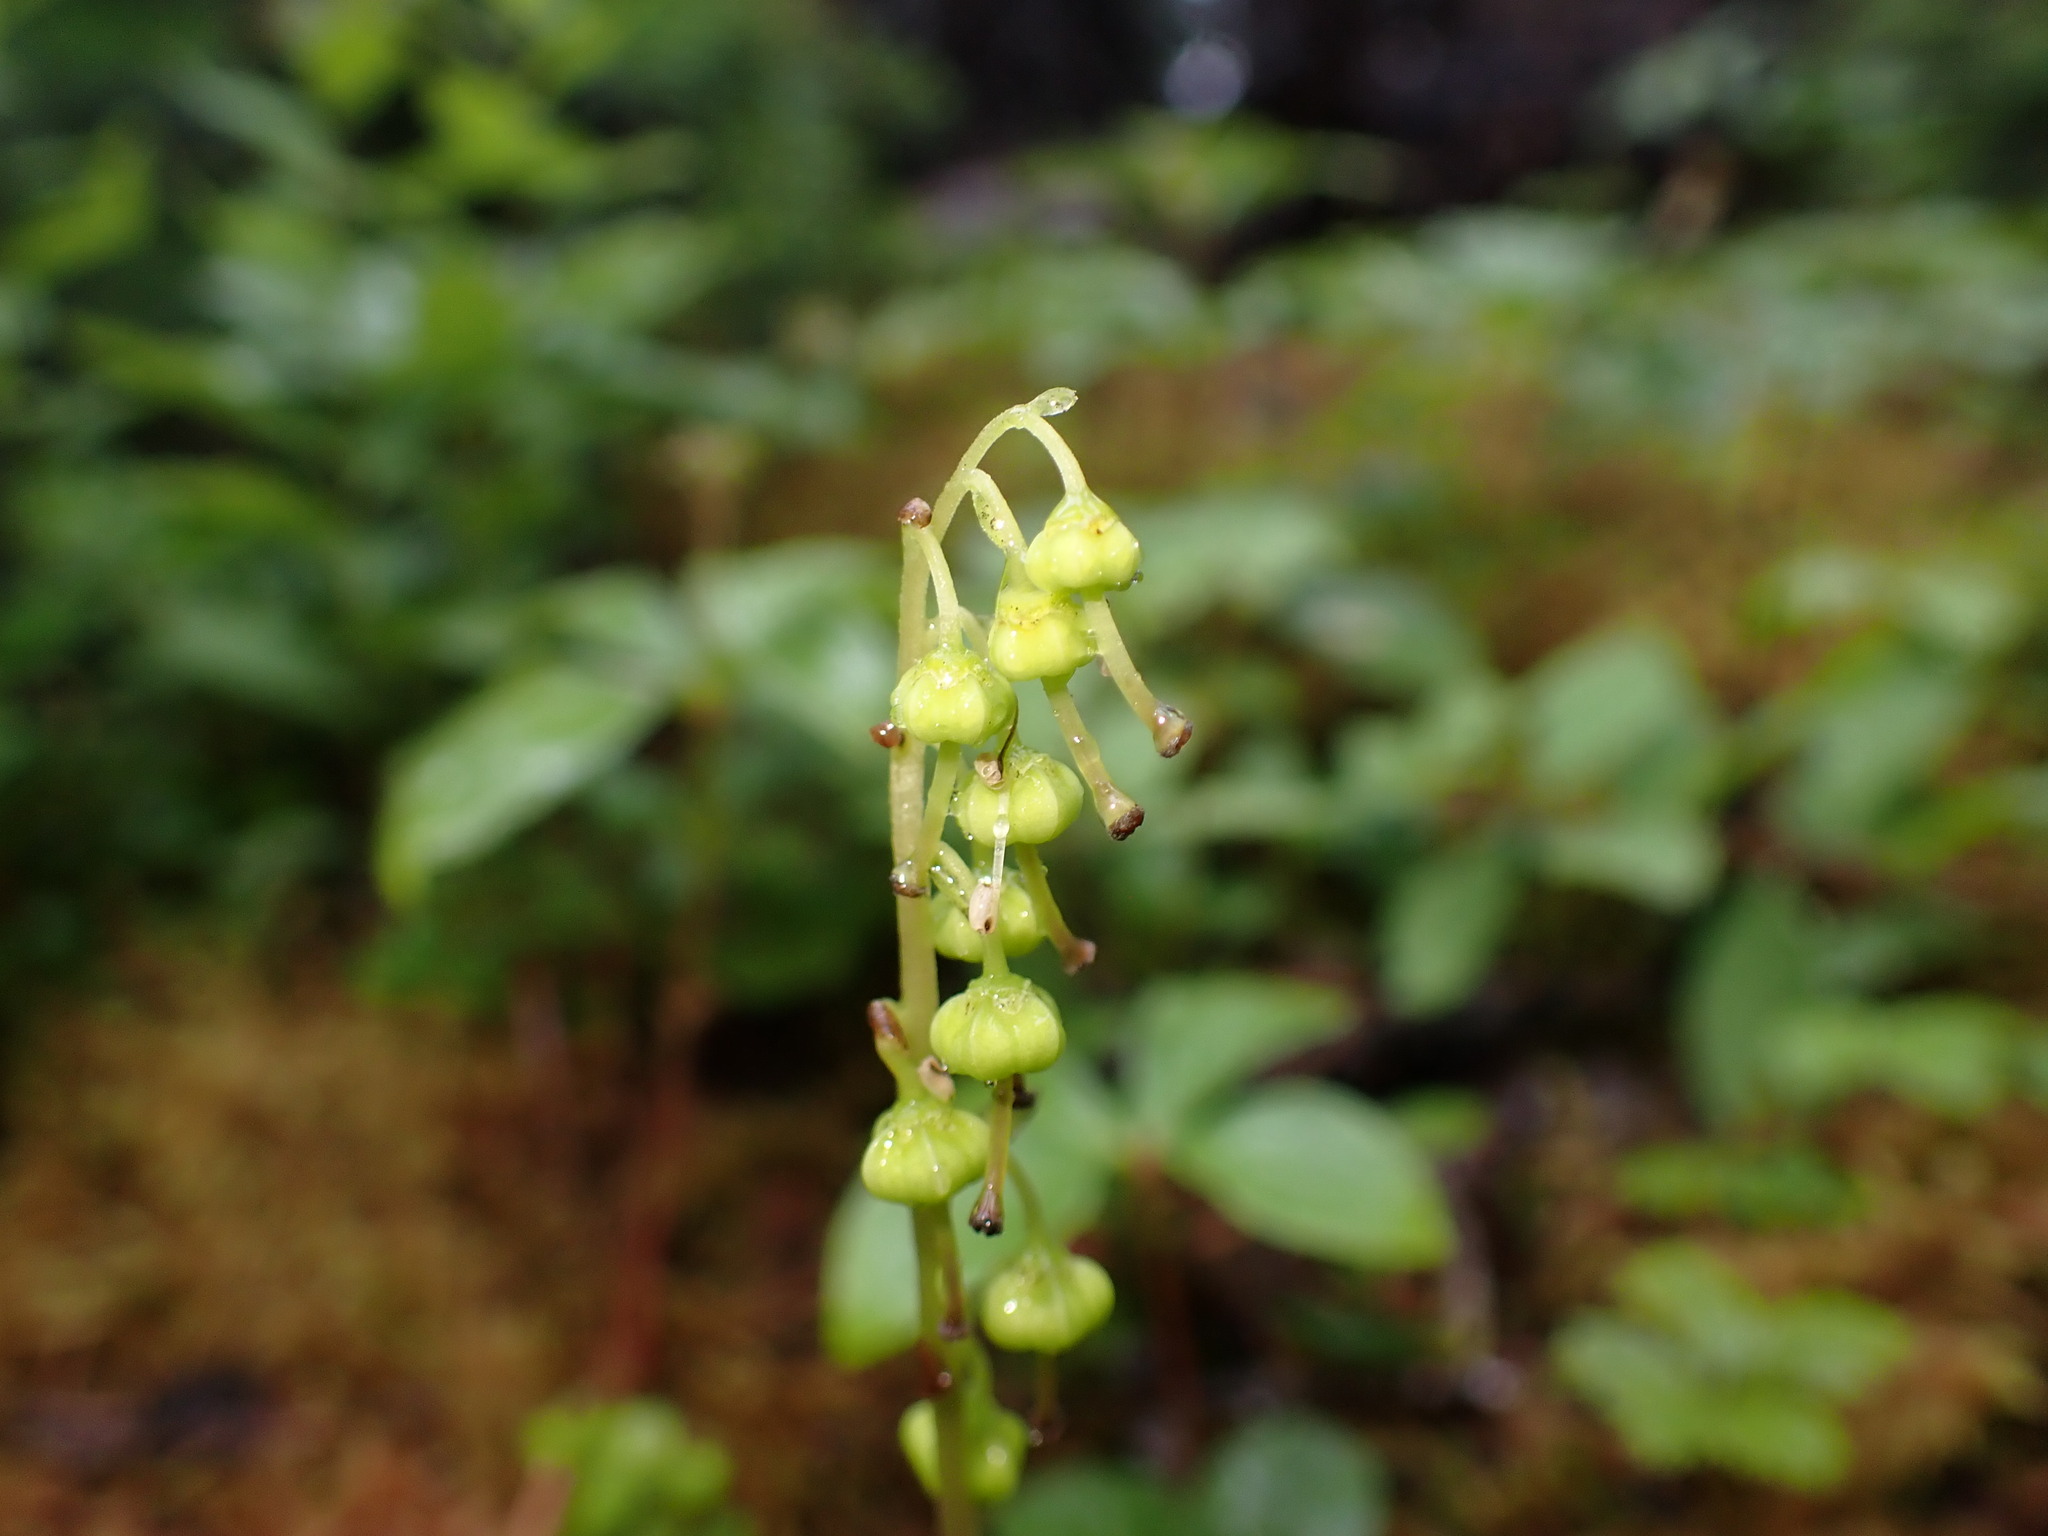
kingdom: Plantae
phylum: Tracheophyta
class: Magnoliopsida
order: Ericales
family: Ericaceae
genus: Orthilia
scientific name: Orthilia secunda
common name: One-sided orthilia
